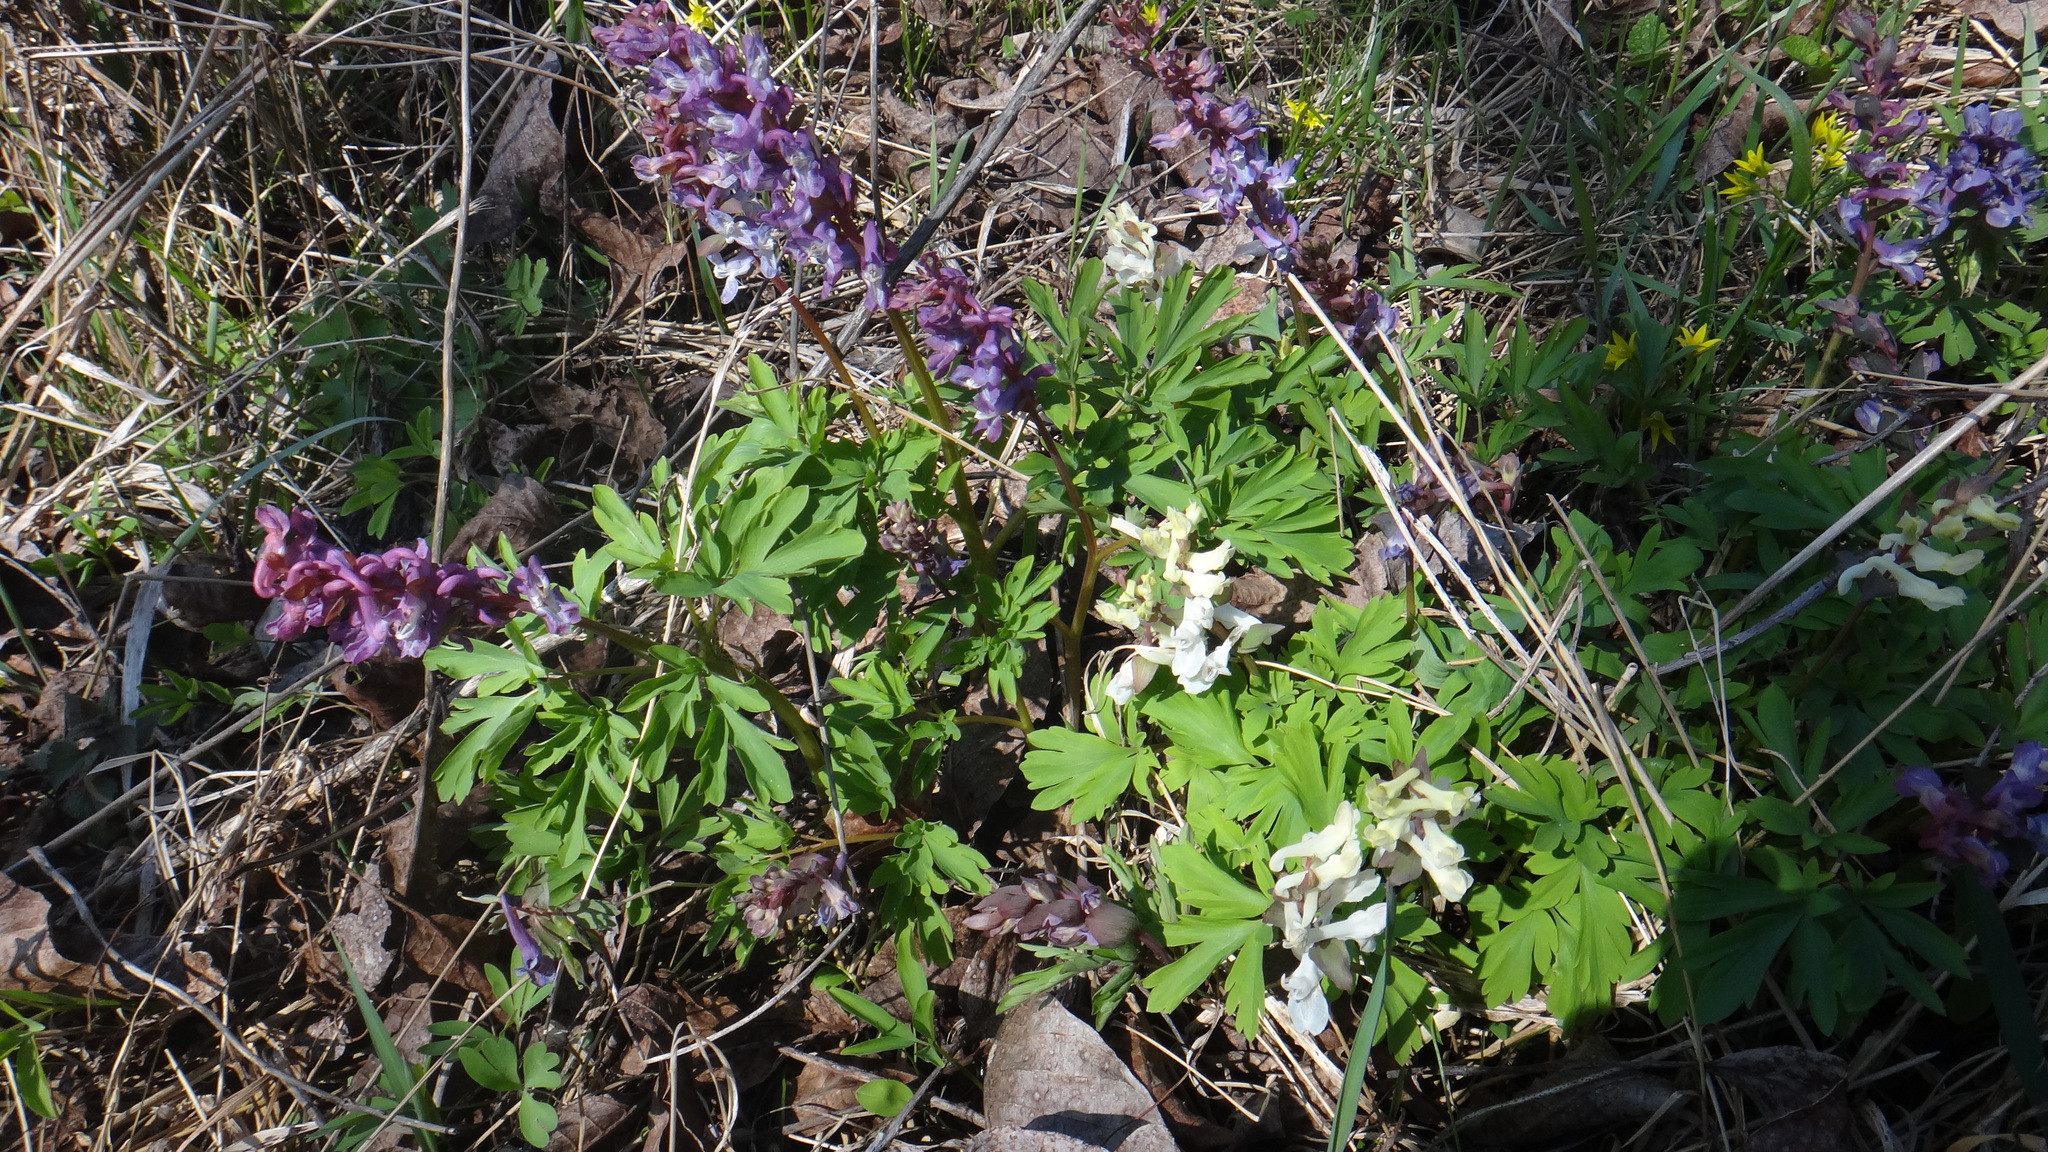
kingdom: Plantae
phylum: Tracheophyta
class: Magnoliopsida
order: Ranunculales
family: Papaveraceae
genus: Corydalis
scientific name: Corydalis cava
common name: Hollowroot
